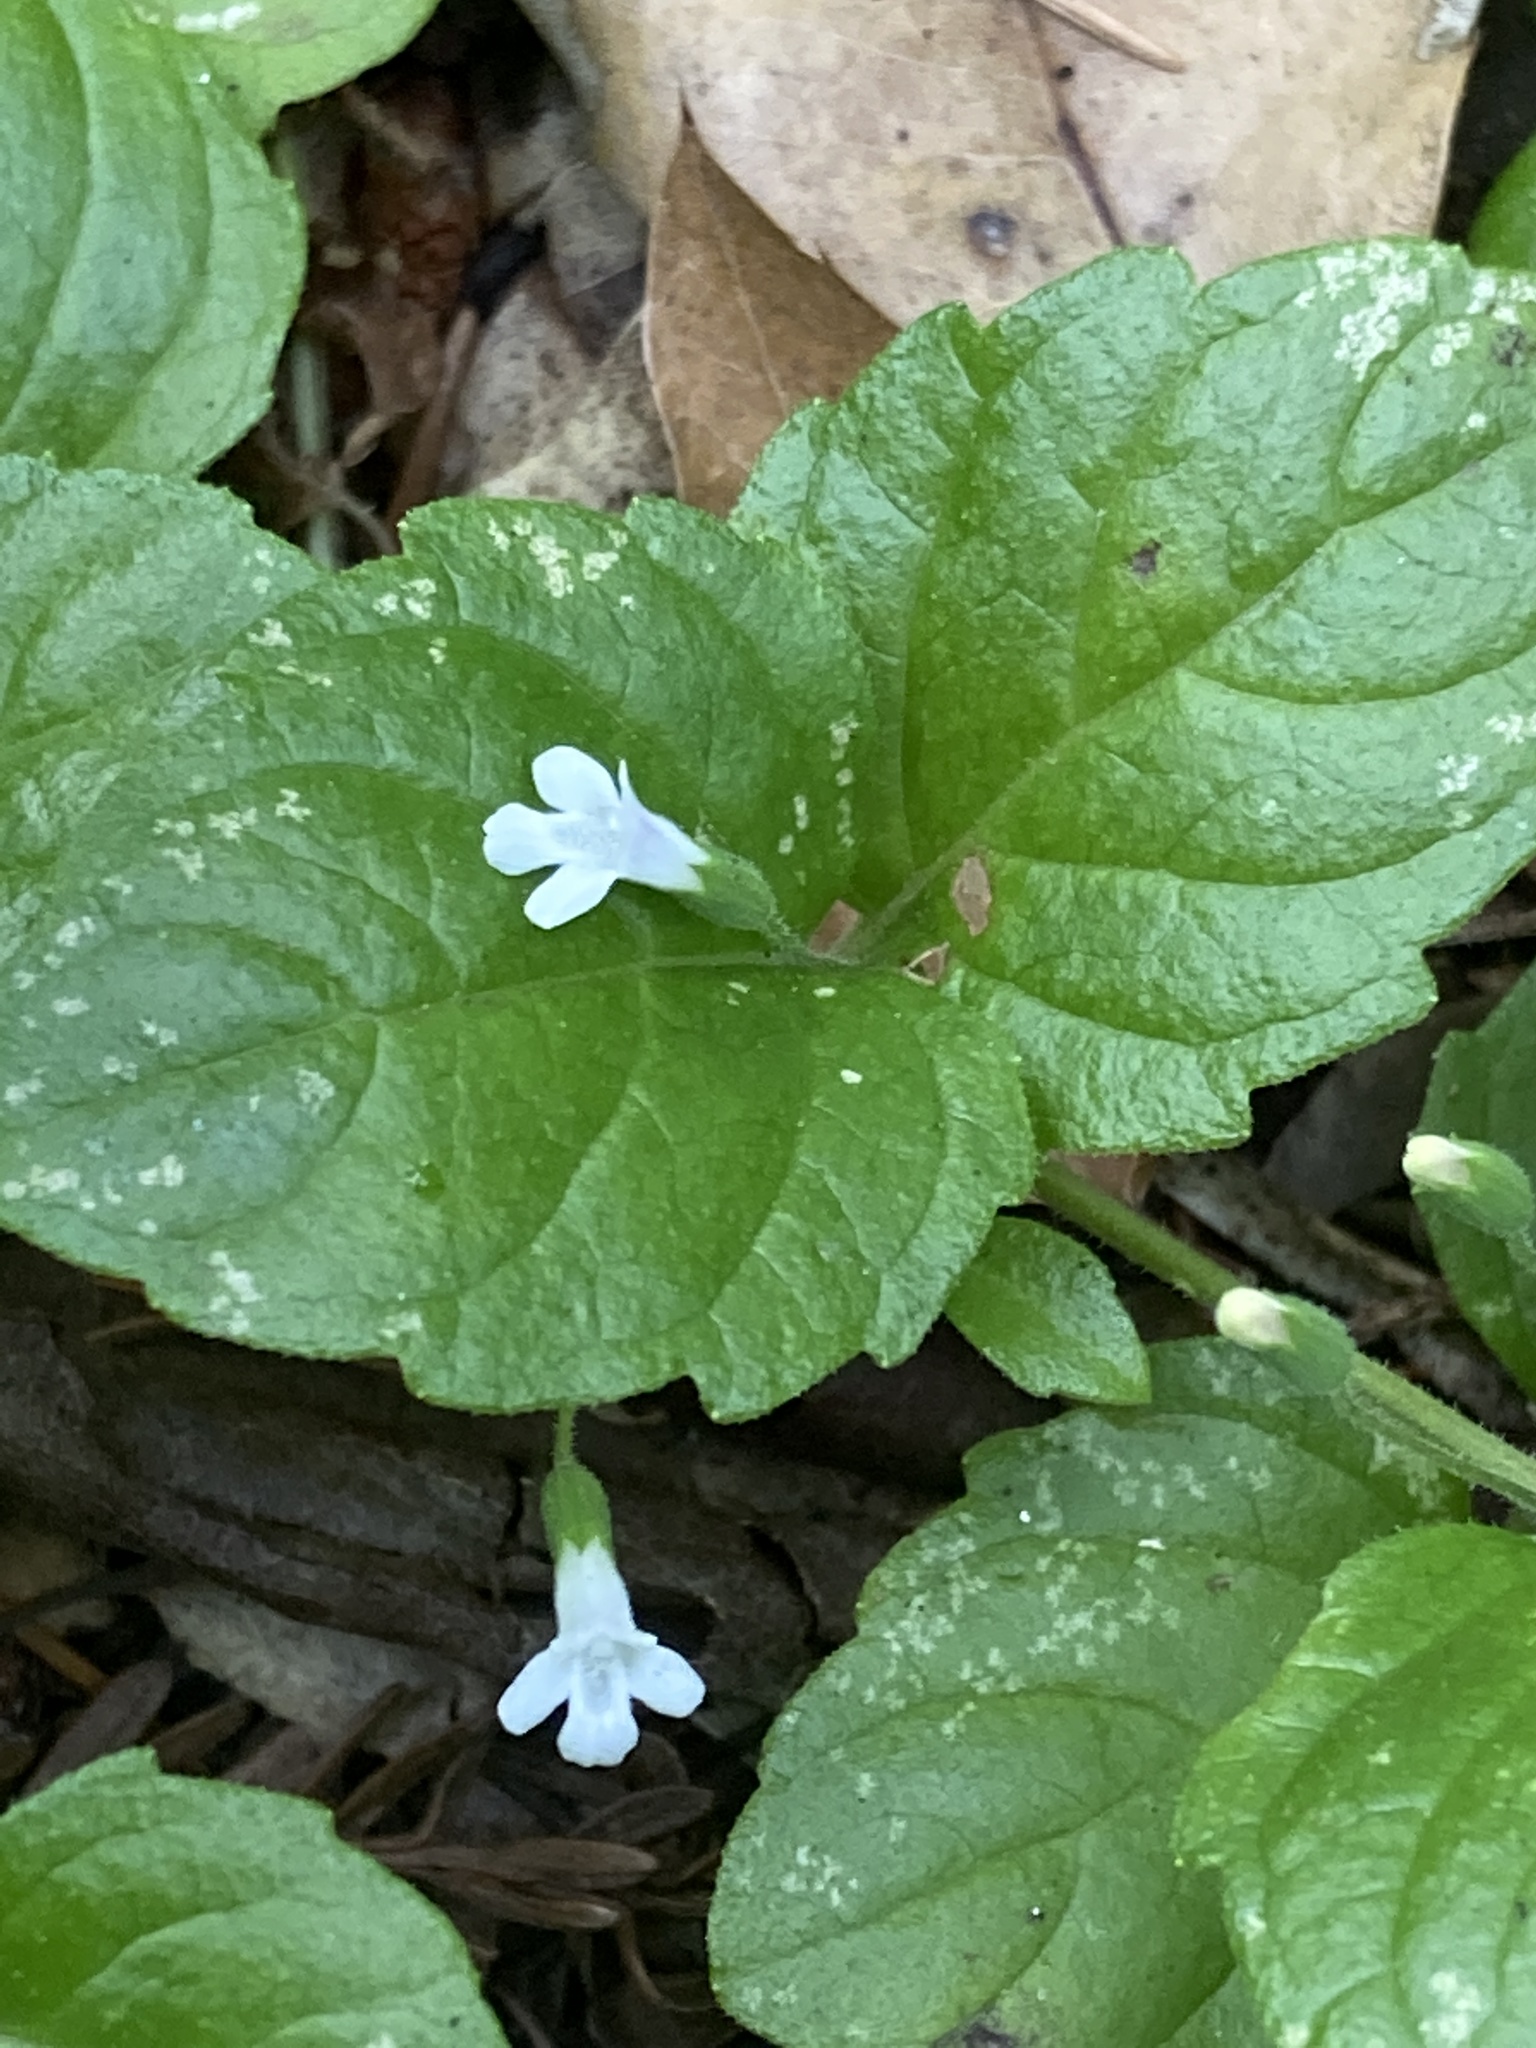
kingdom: Plantae
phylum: Tracheophyta
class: Magnoliopsida
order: Lamiales
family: Lamiaceae
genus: Micromeria
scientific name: Micromeria douglasii
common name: Yerba buena
